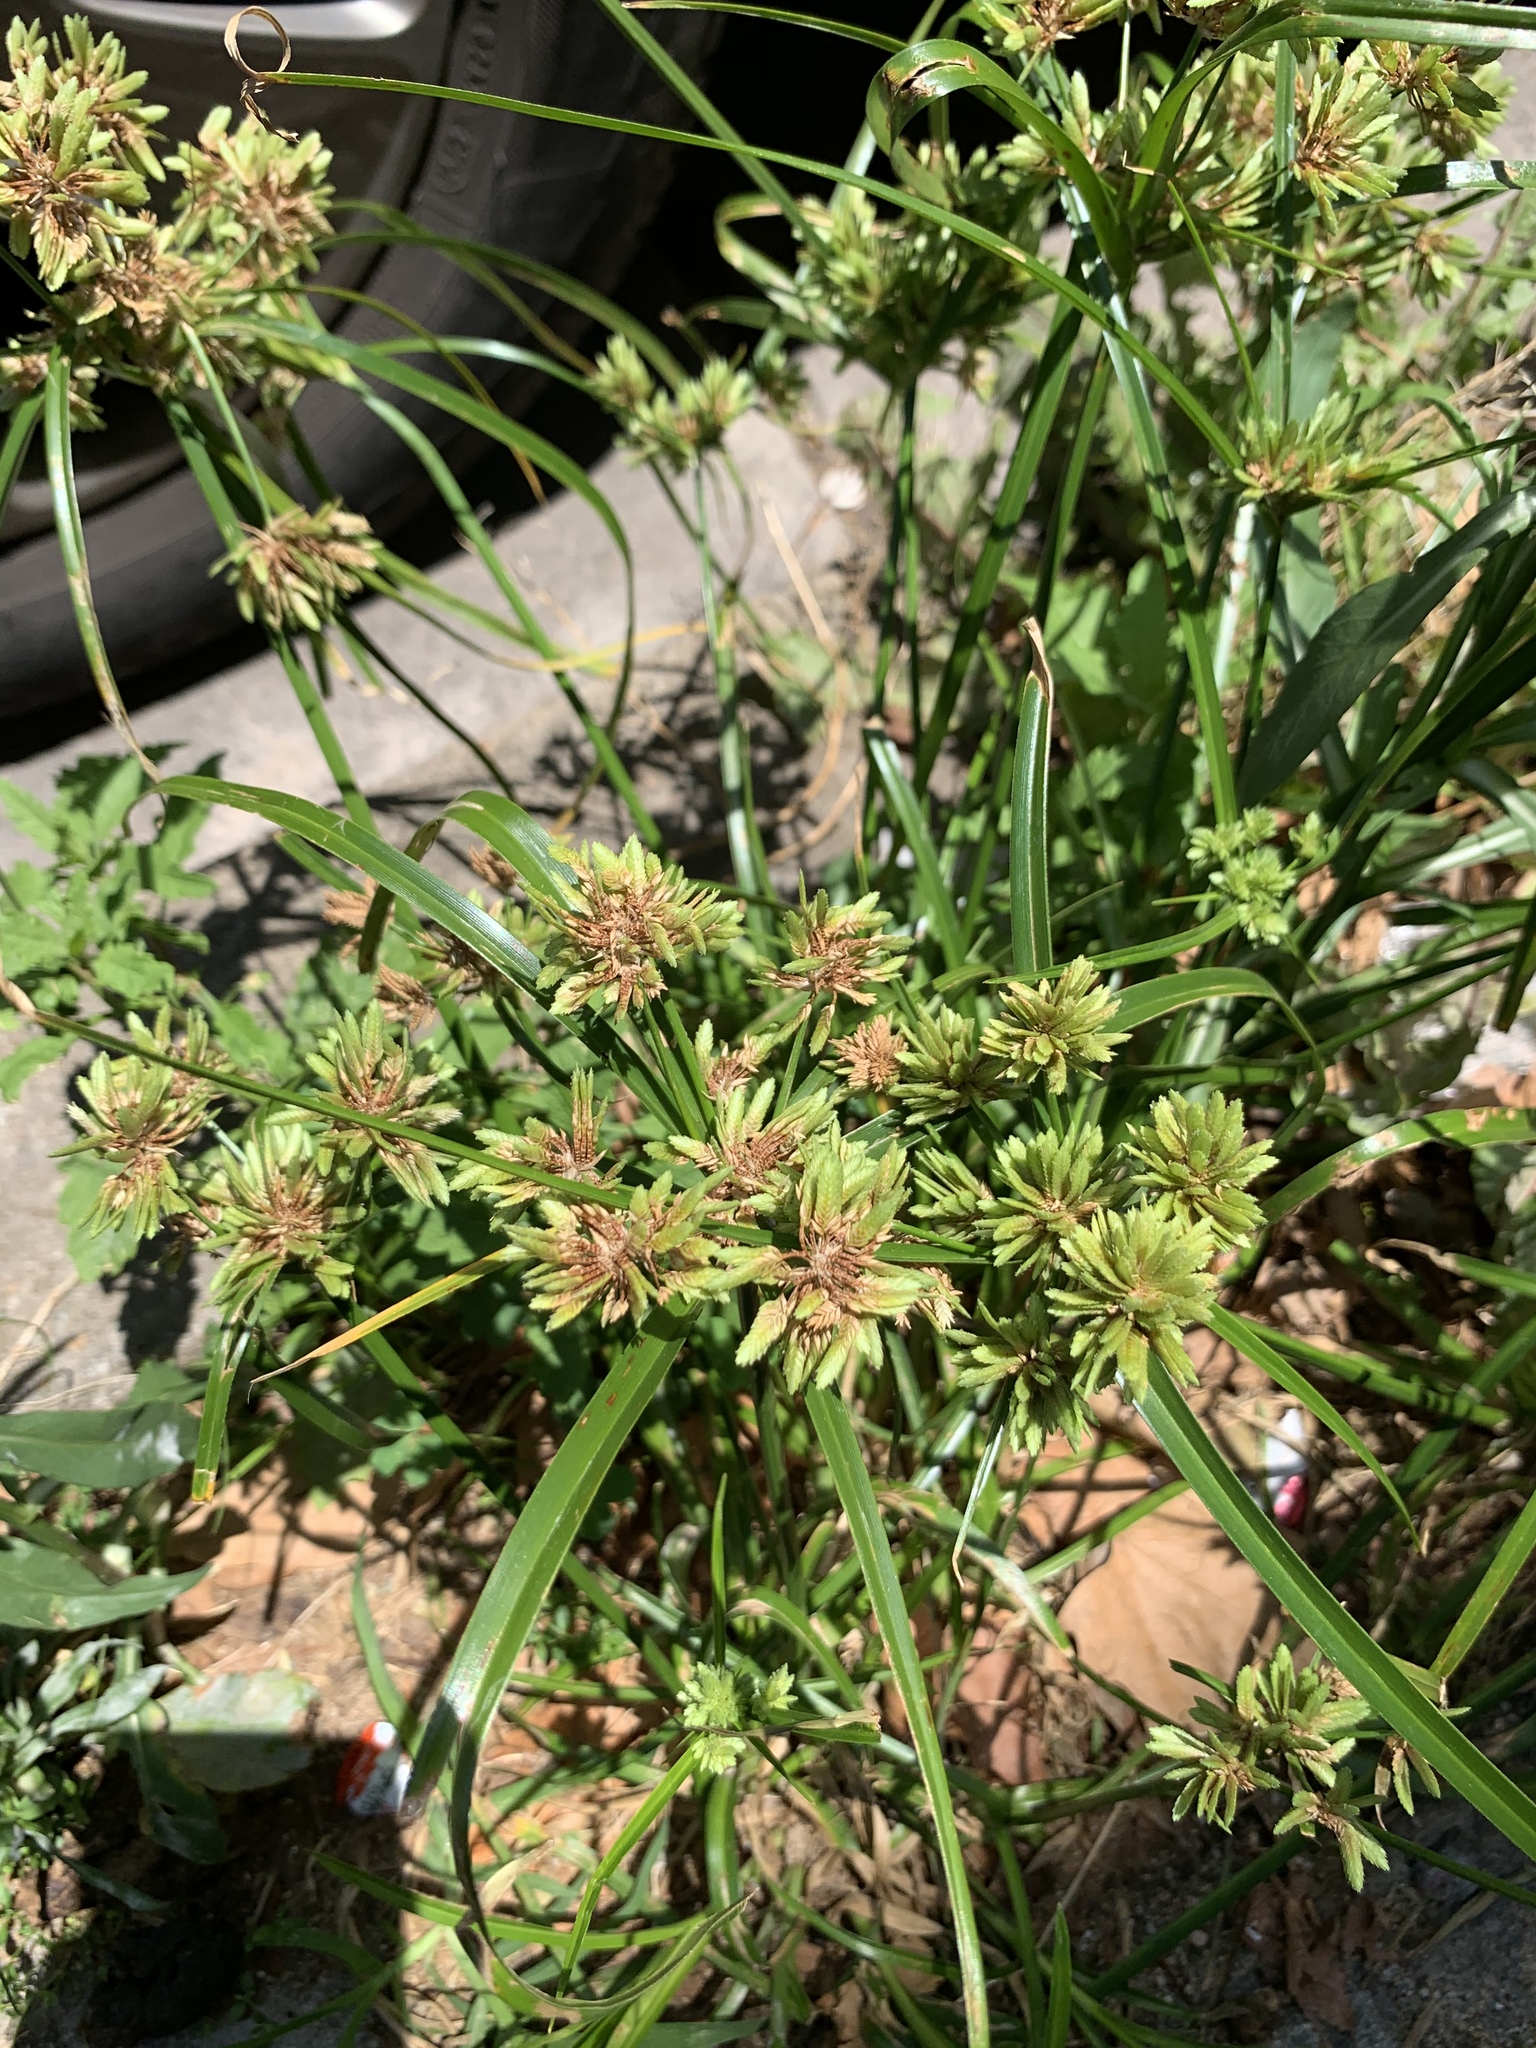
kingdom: Plantae
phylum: Tracheophyta
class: Liliopsida
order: Poales
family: Cyperaceae
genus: Cyperus
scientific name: Cyperus eragrostis
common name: Tall flatsedge
